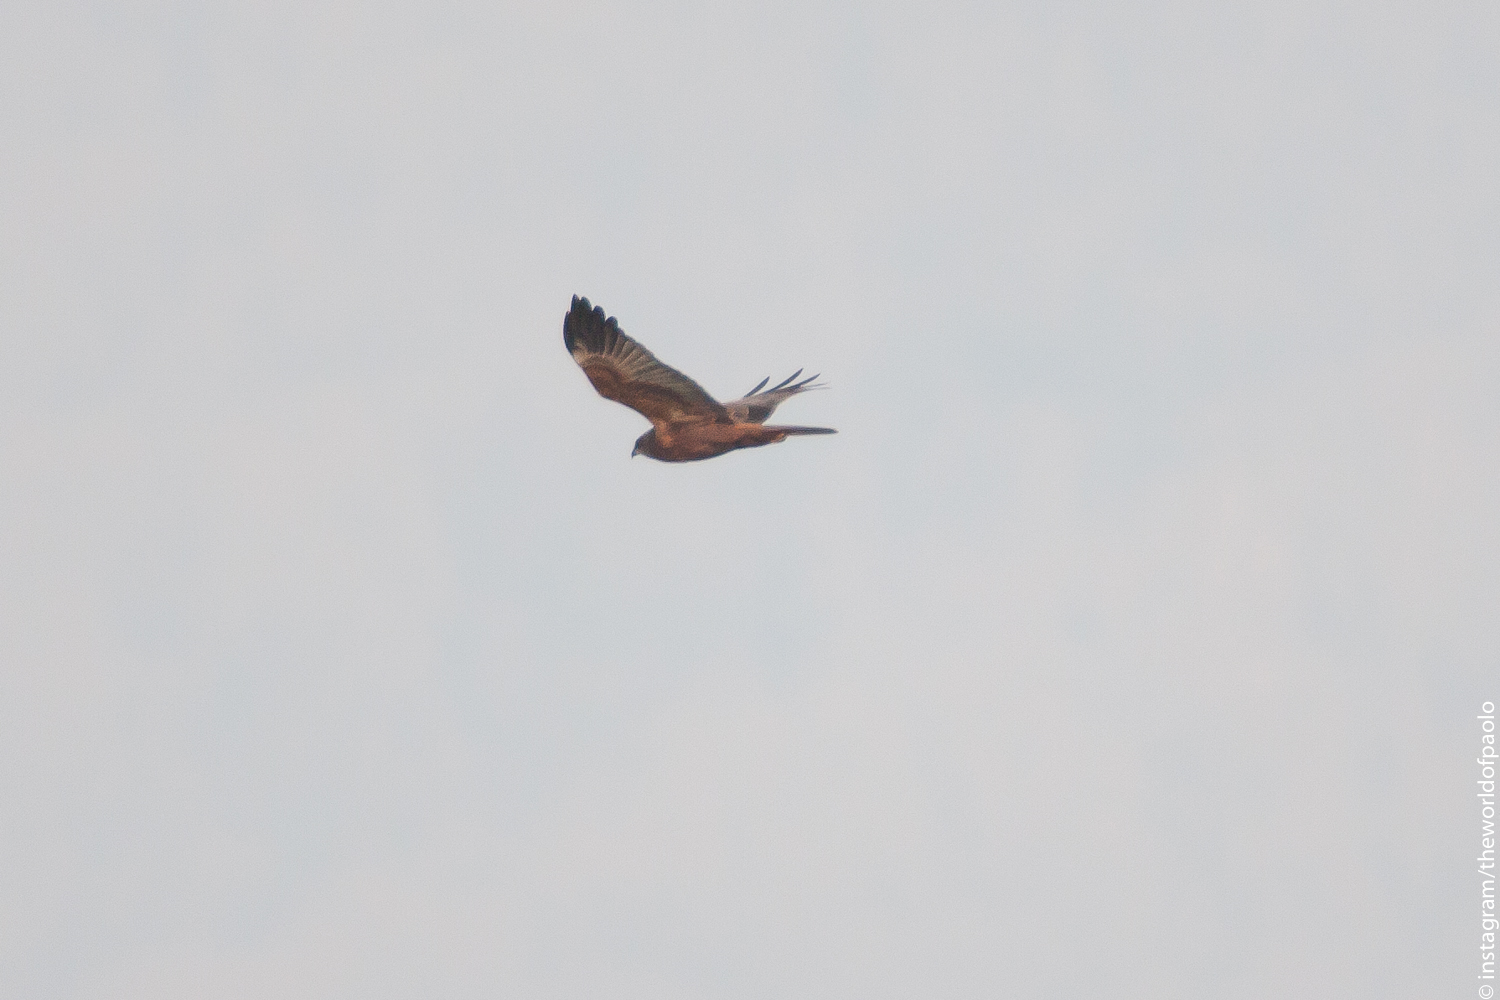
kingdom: Animalia
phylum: Chordata
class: Aves
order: Accipitriformes
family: Accipitridae
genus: Circus
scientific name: Circus aeruginosus
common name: Western marsh harrier
